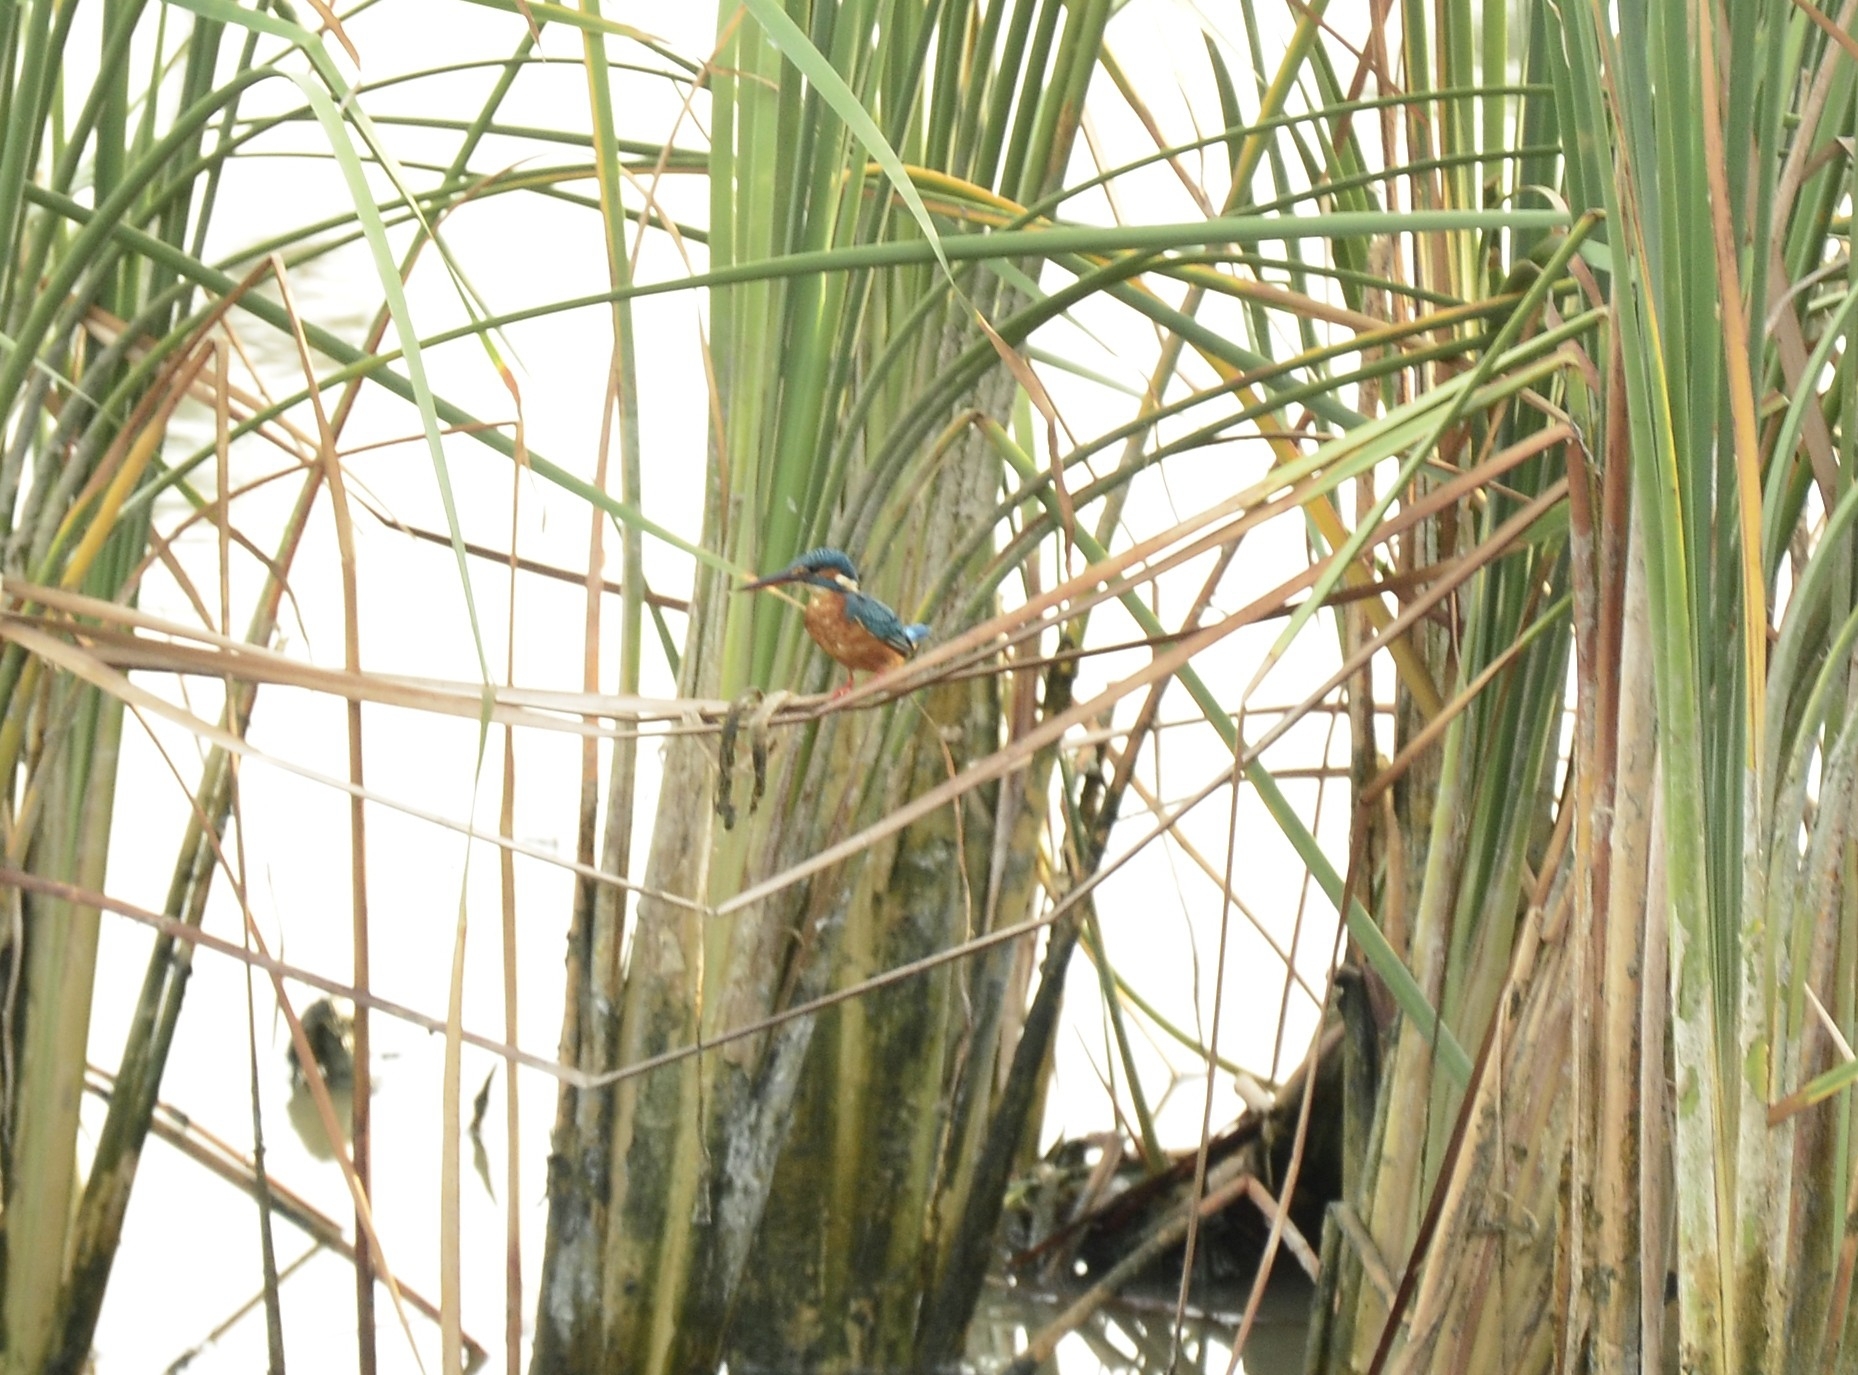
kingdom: Animalia
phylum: Chordata
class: Aves
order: Coraciiformes
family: Alcedinidae
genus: Alcedo
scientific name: Alcedo atthis
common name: Common kingfisher
